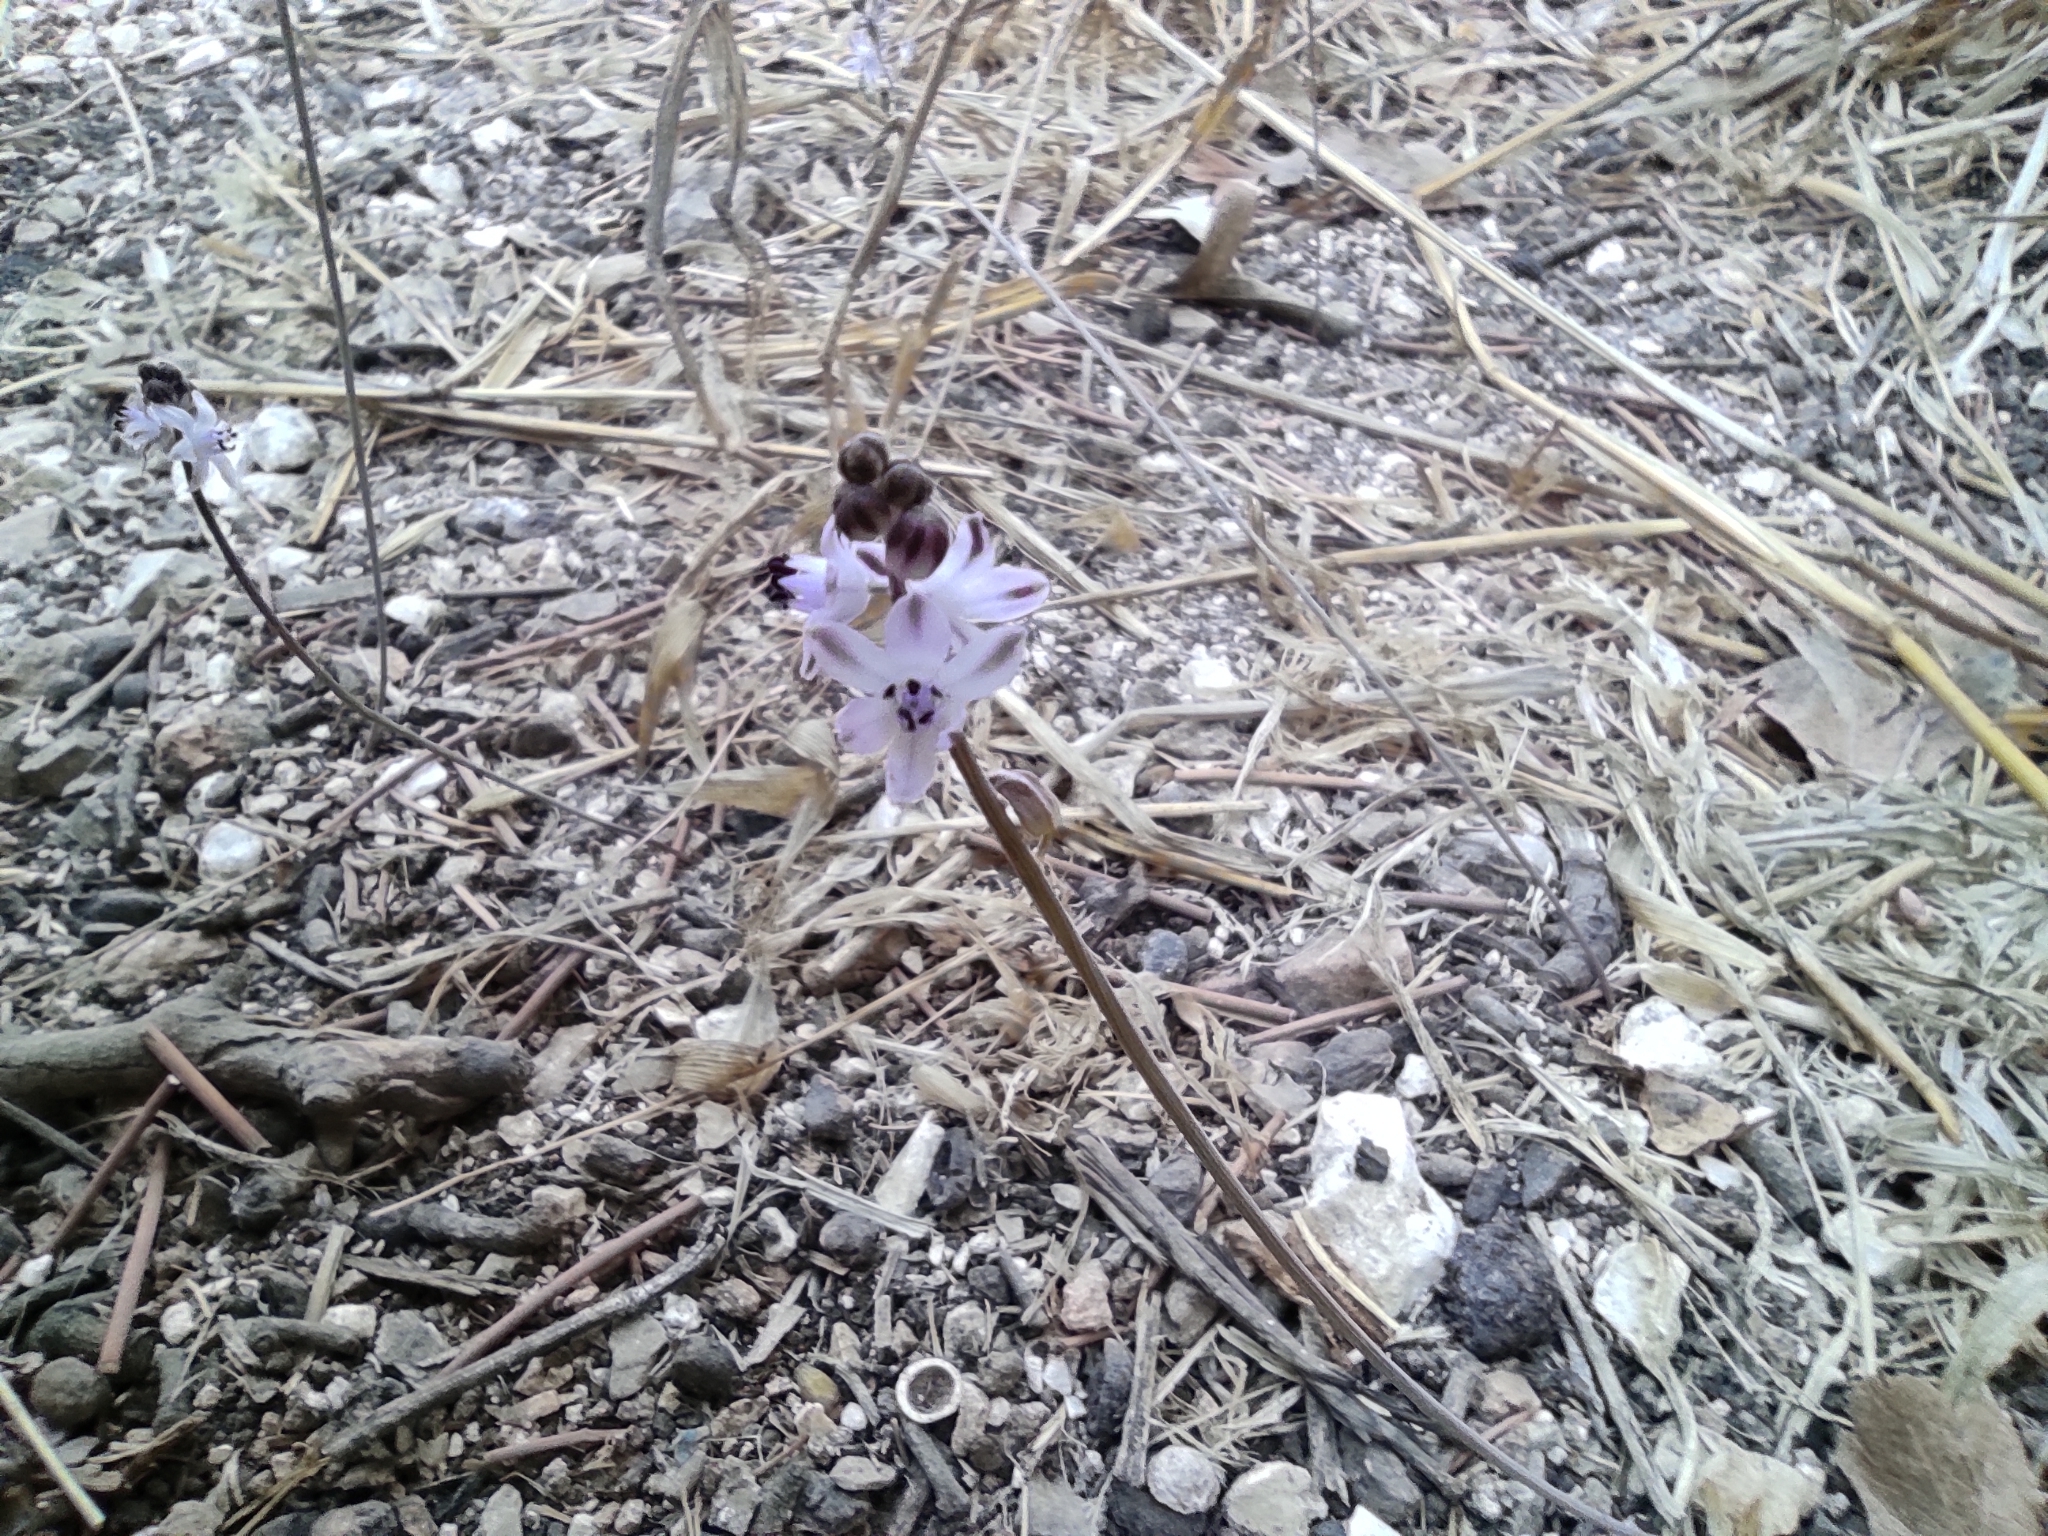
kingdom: Plantae
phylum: Tracheophyta
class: Liliopsida
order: Asparagales
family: Asparagaceae
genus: Prospero
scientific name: Prospero autumnale
